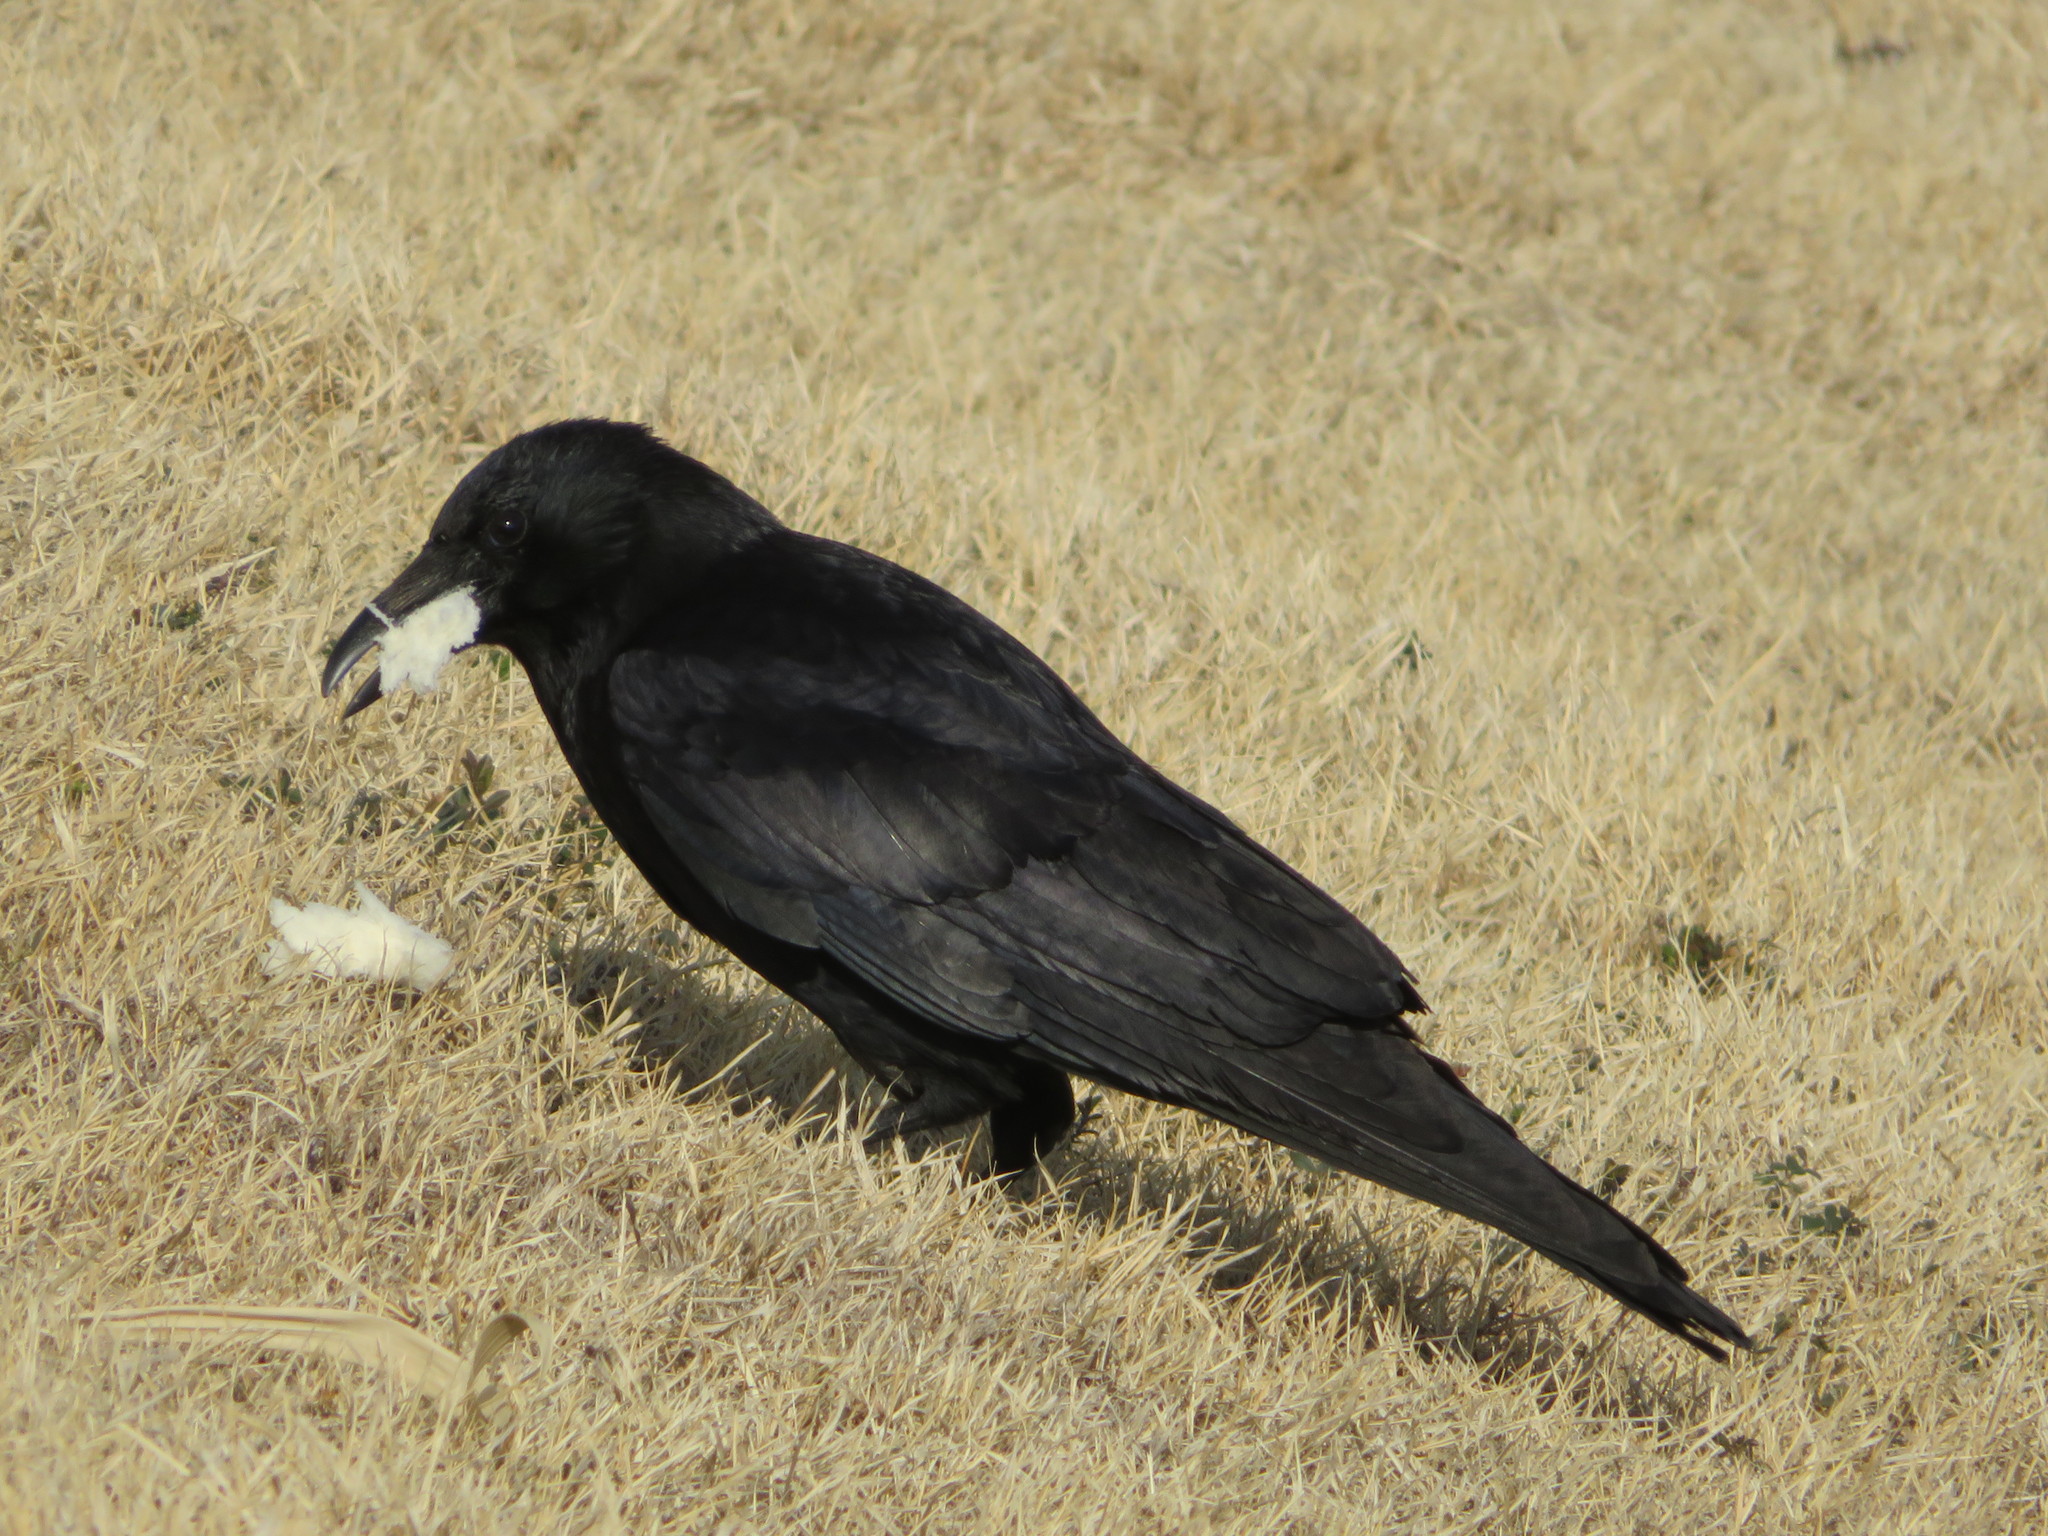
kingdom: Animalia
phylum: Chordata
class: Aves
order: Passeriformes
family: Corvidae
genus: Corvus
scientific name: Corvus corone
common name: Carrion crow
